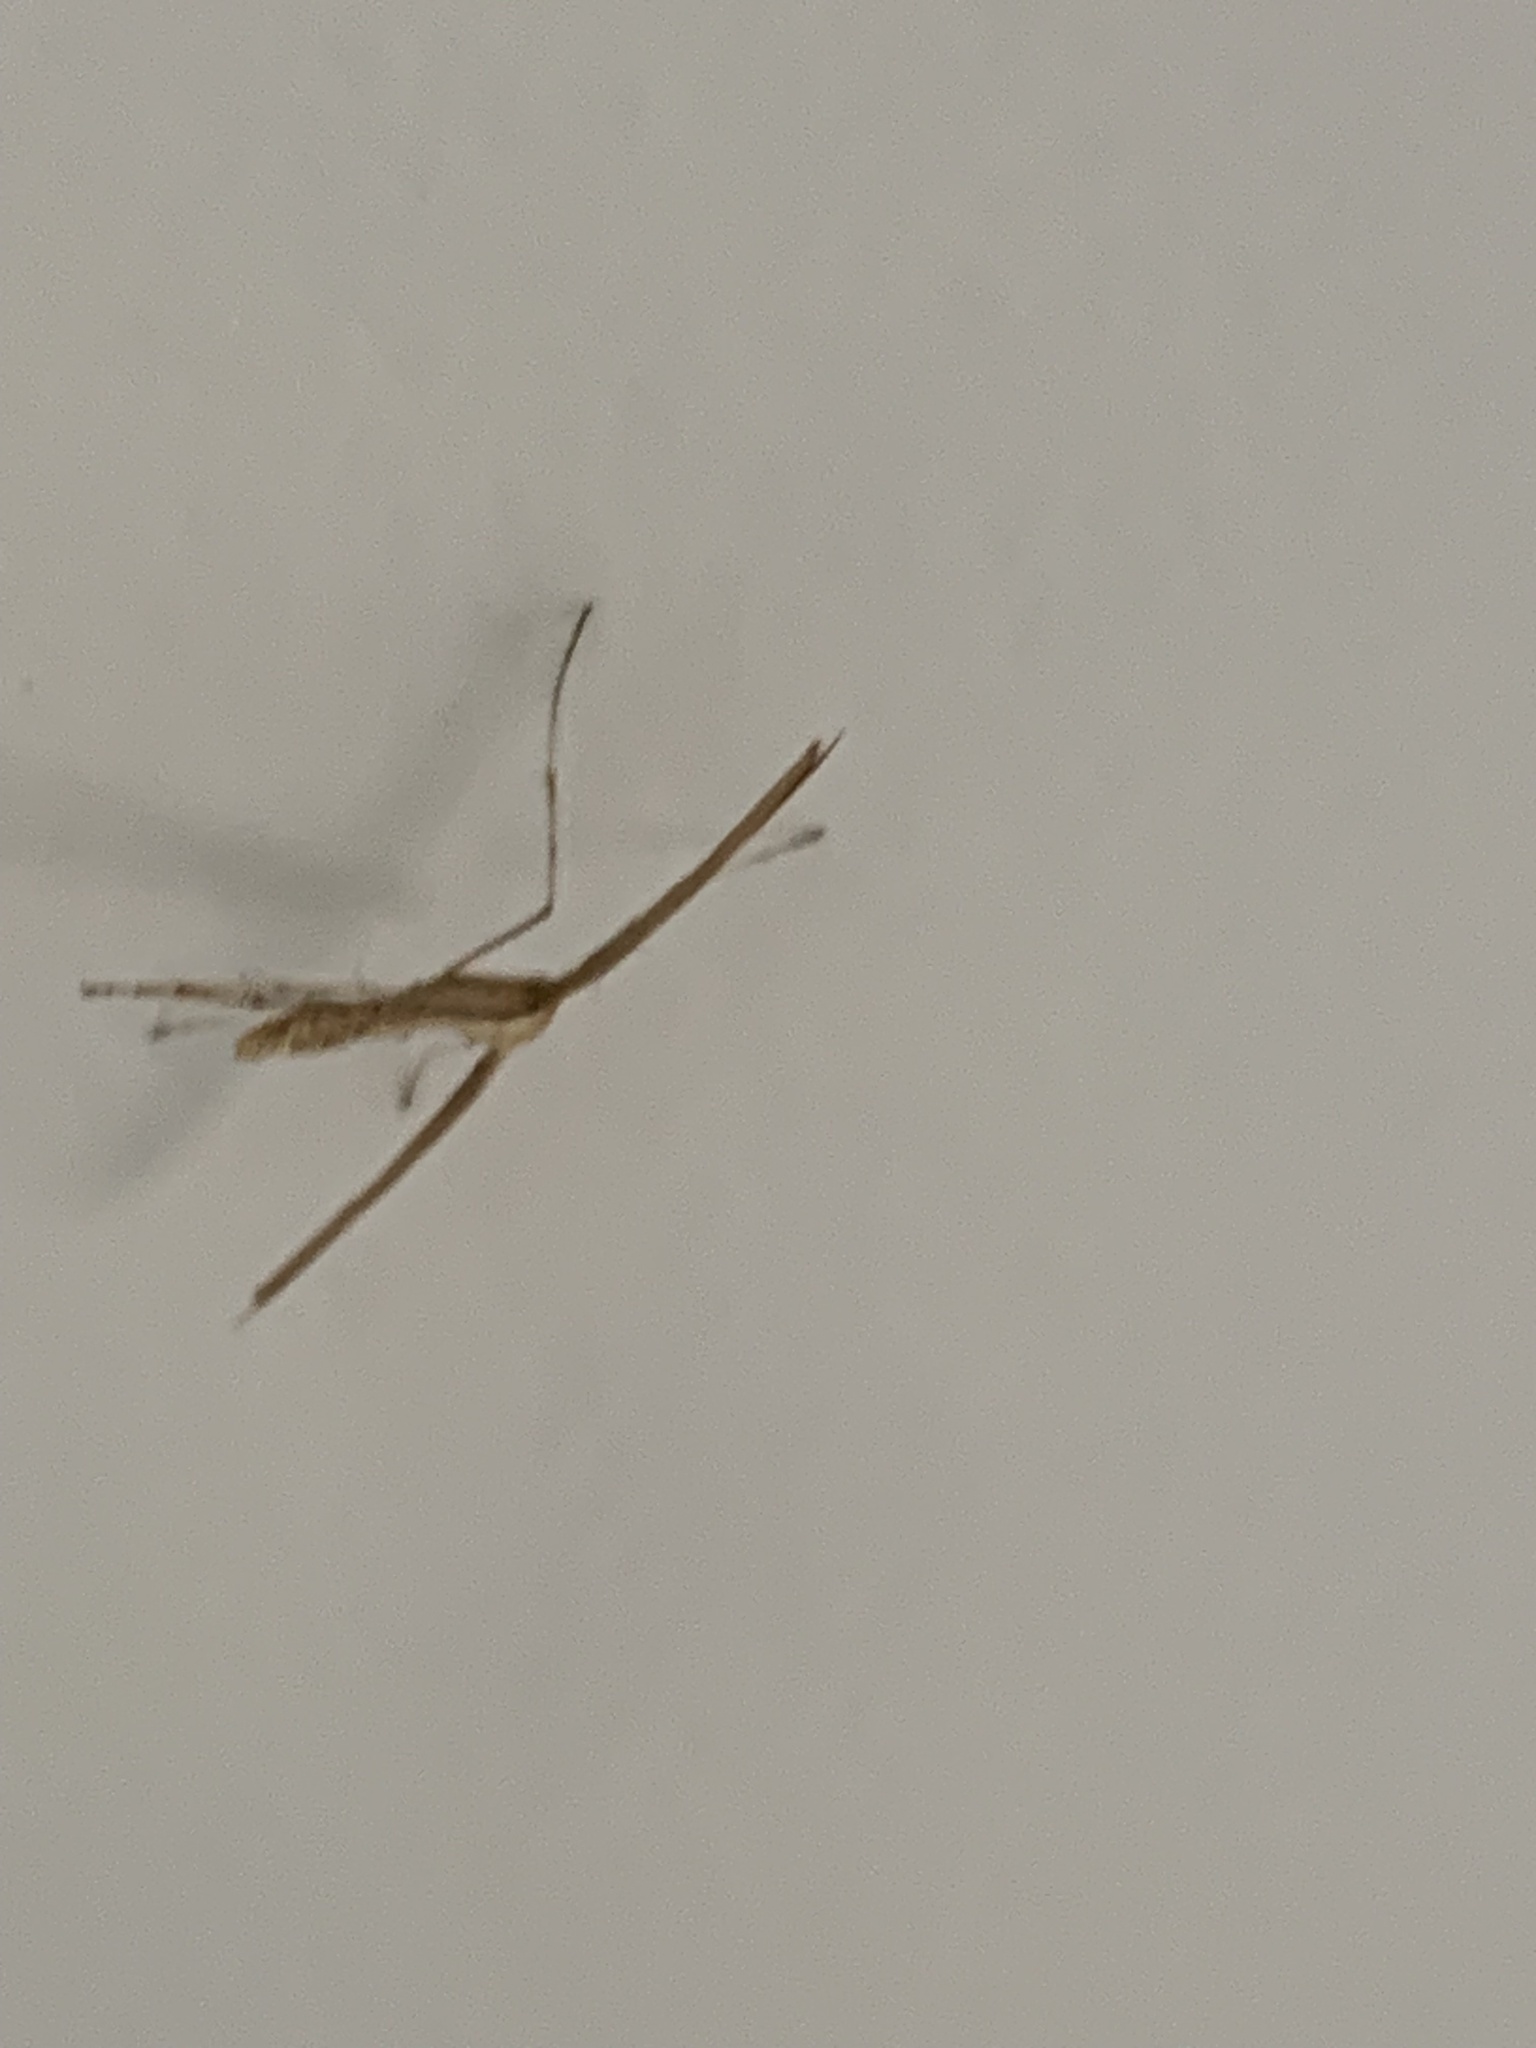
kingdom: Animalia
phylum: Arthropoda
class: Insecta
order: Lepidoptera
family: Pterophoridae
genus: Emmelina
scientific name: Emmelina monodactyla
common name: Common plume
